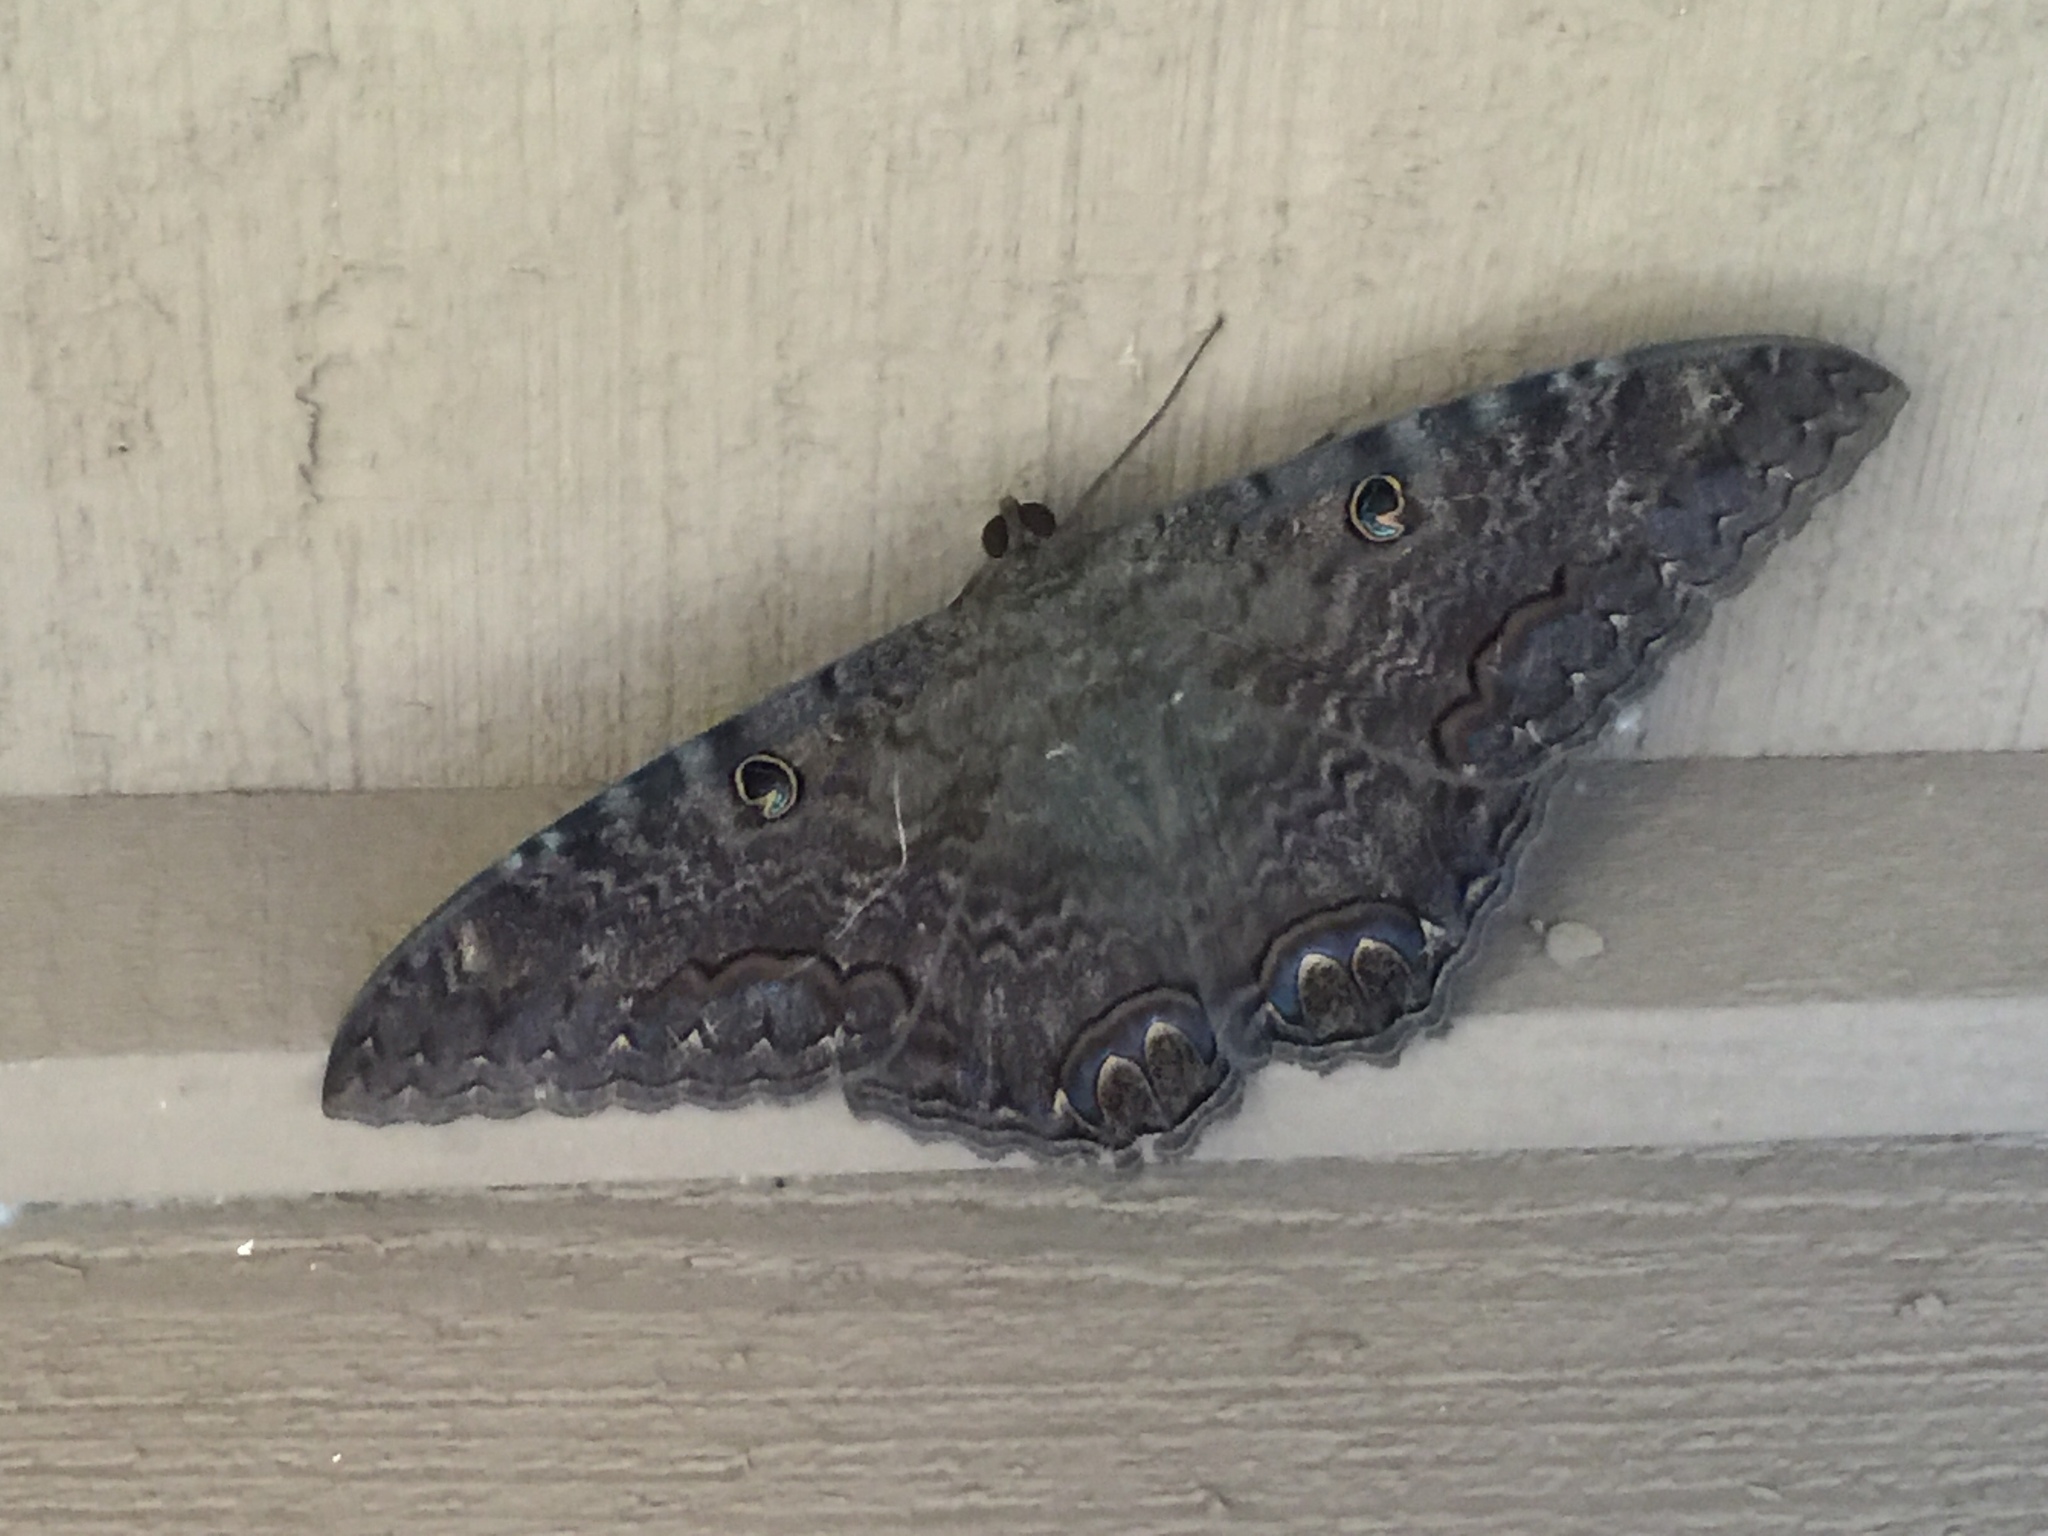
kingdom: Animalia
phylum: Arthropoda
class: Insecta
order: Lepidoptera
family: Erebidae
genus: Ascalapha
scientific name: Ascalapha odorata
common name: Black witch
